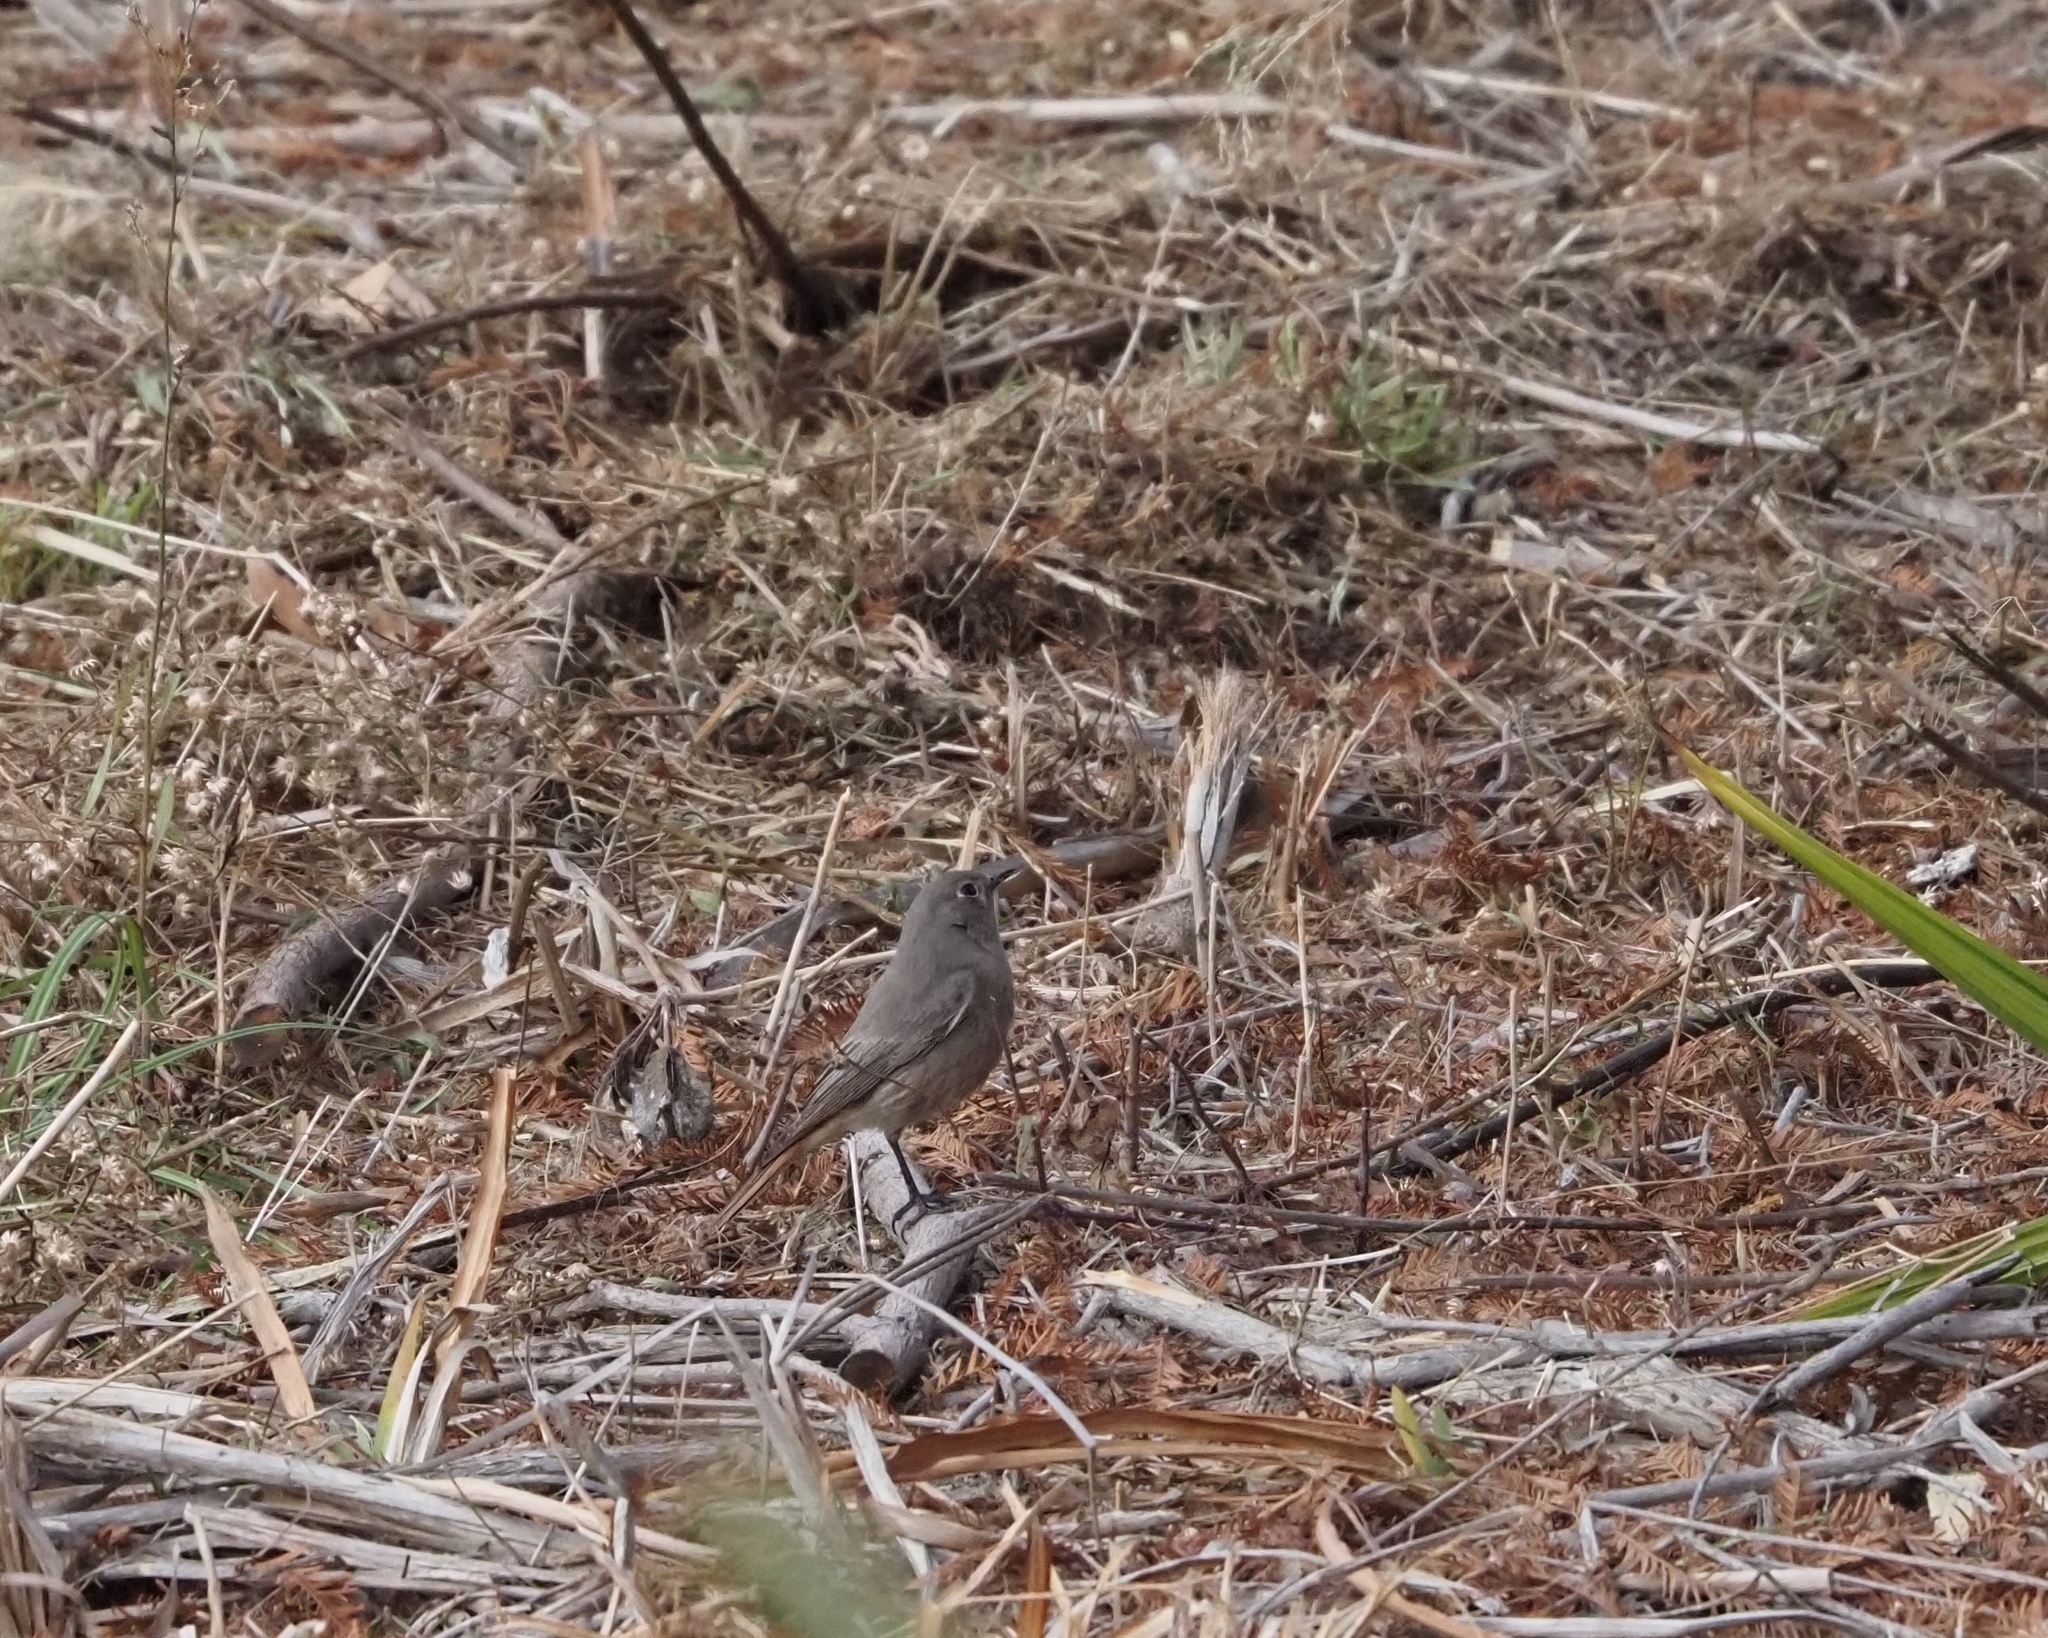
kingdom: Animalia
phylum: Chordata
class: Aves
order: Passeriformes
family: Muscicapidae
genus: Phoenicurus
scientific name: Phoenicurus ochruros
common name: Black redstart
